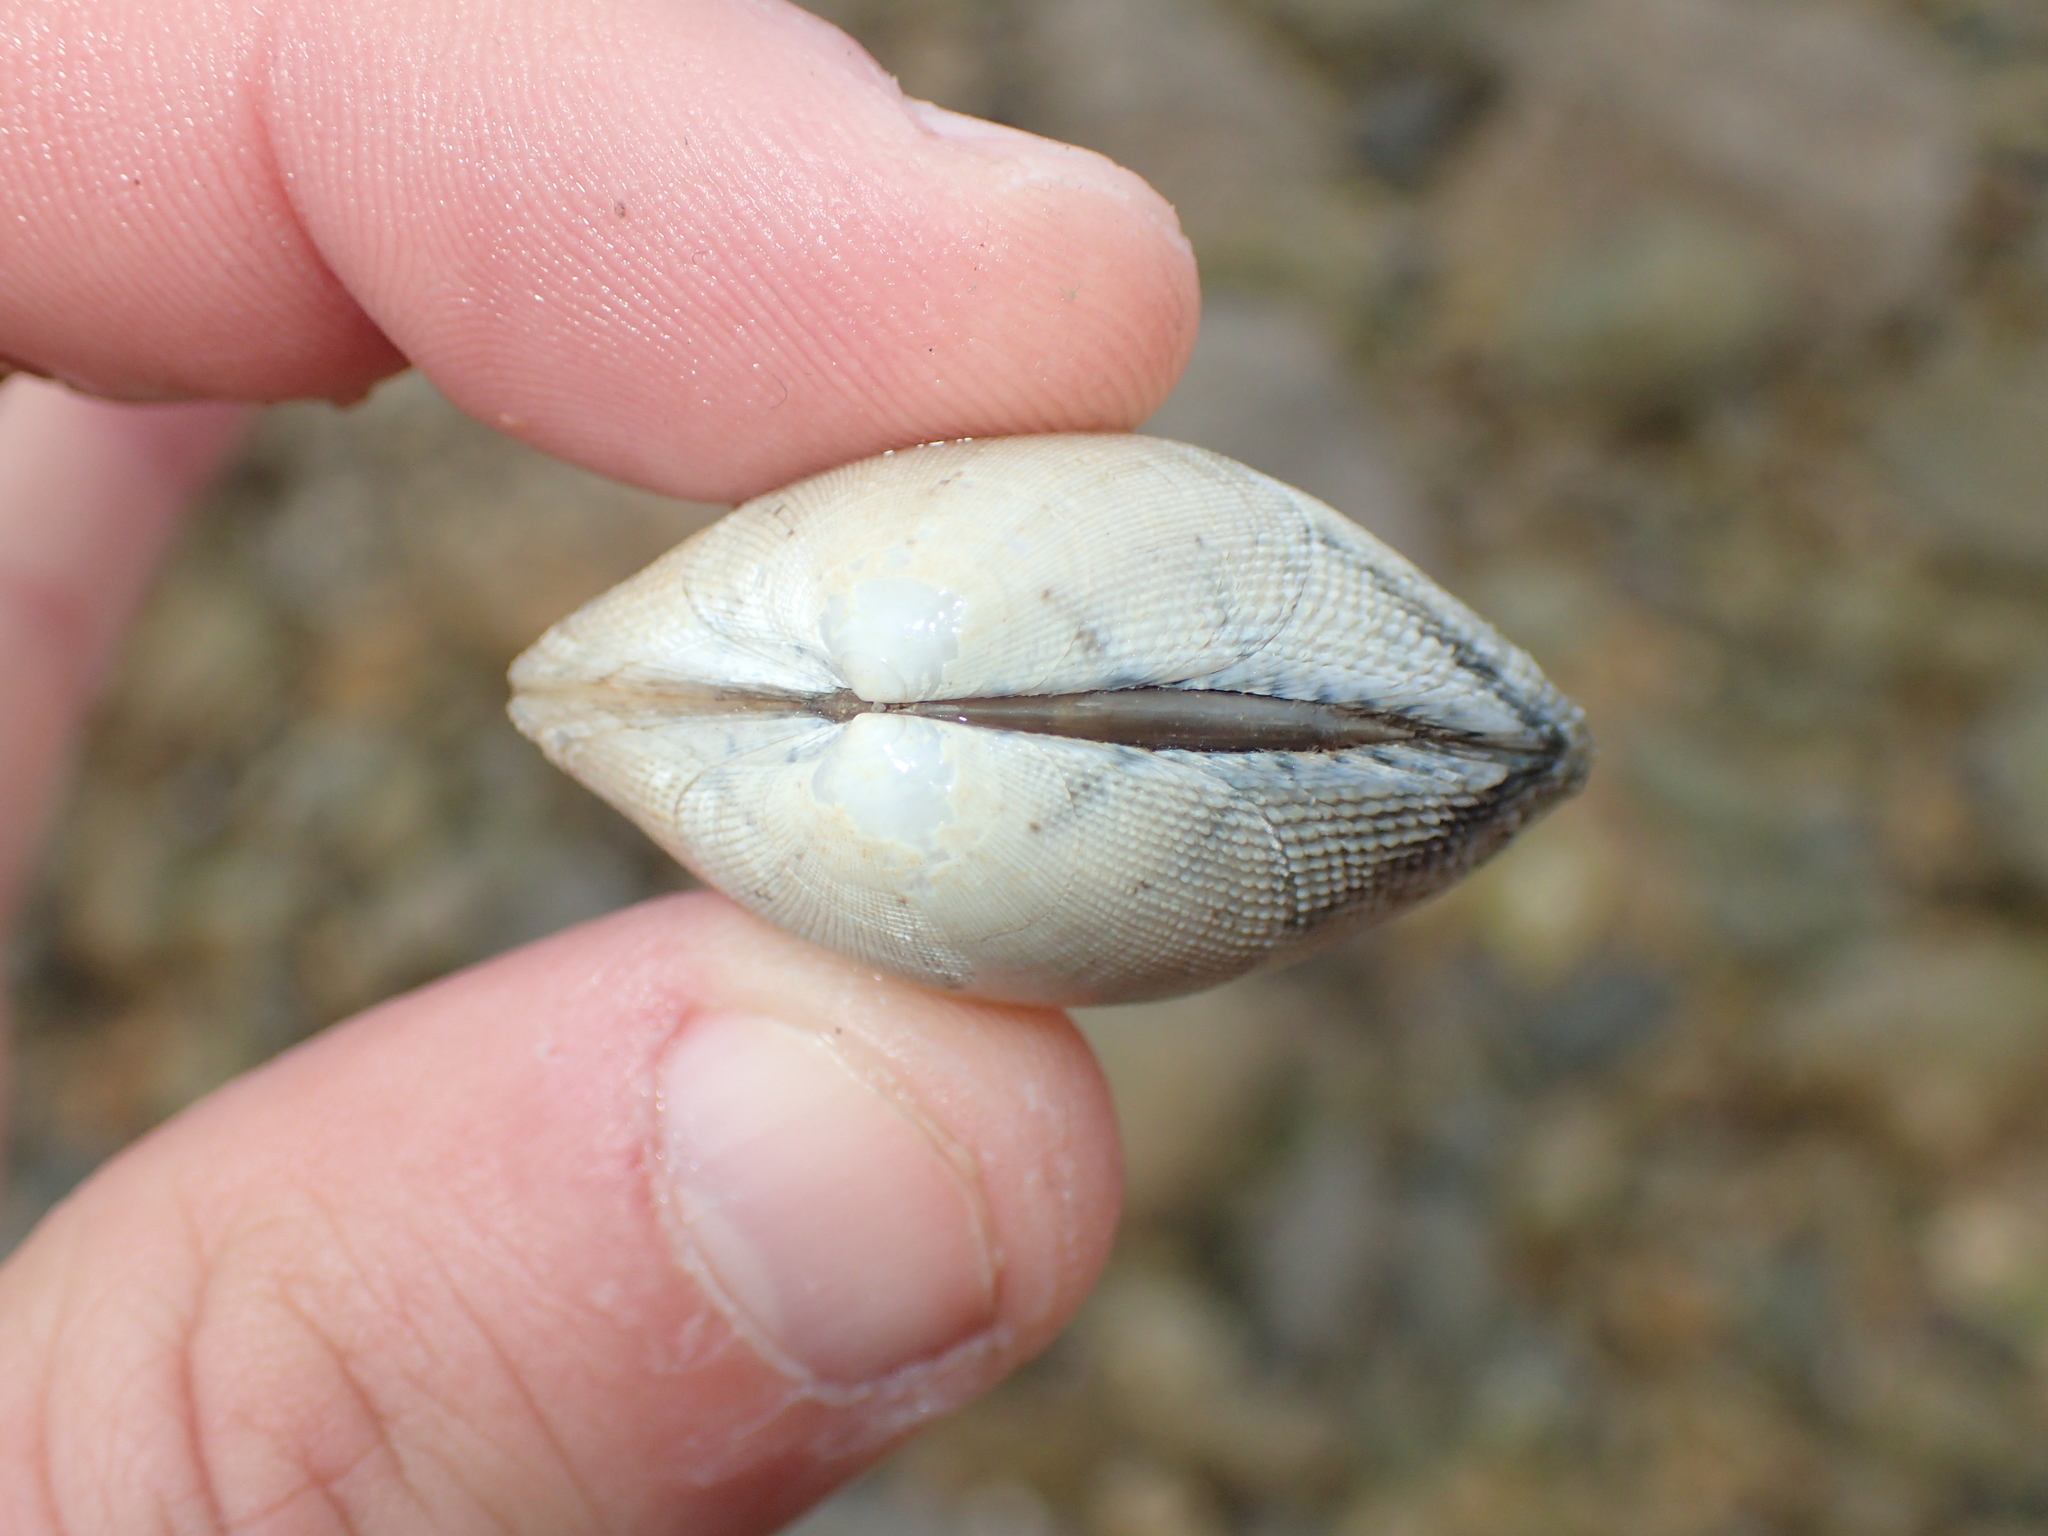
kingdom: Animalia
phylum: Mollusca
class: Bivalvia
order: Venerida
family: Veneridae
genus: Ruditapes
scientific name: Ruditapes decussatus
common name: Chequered carpet shell
